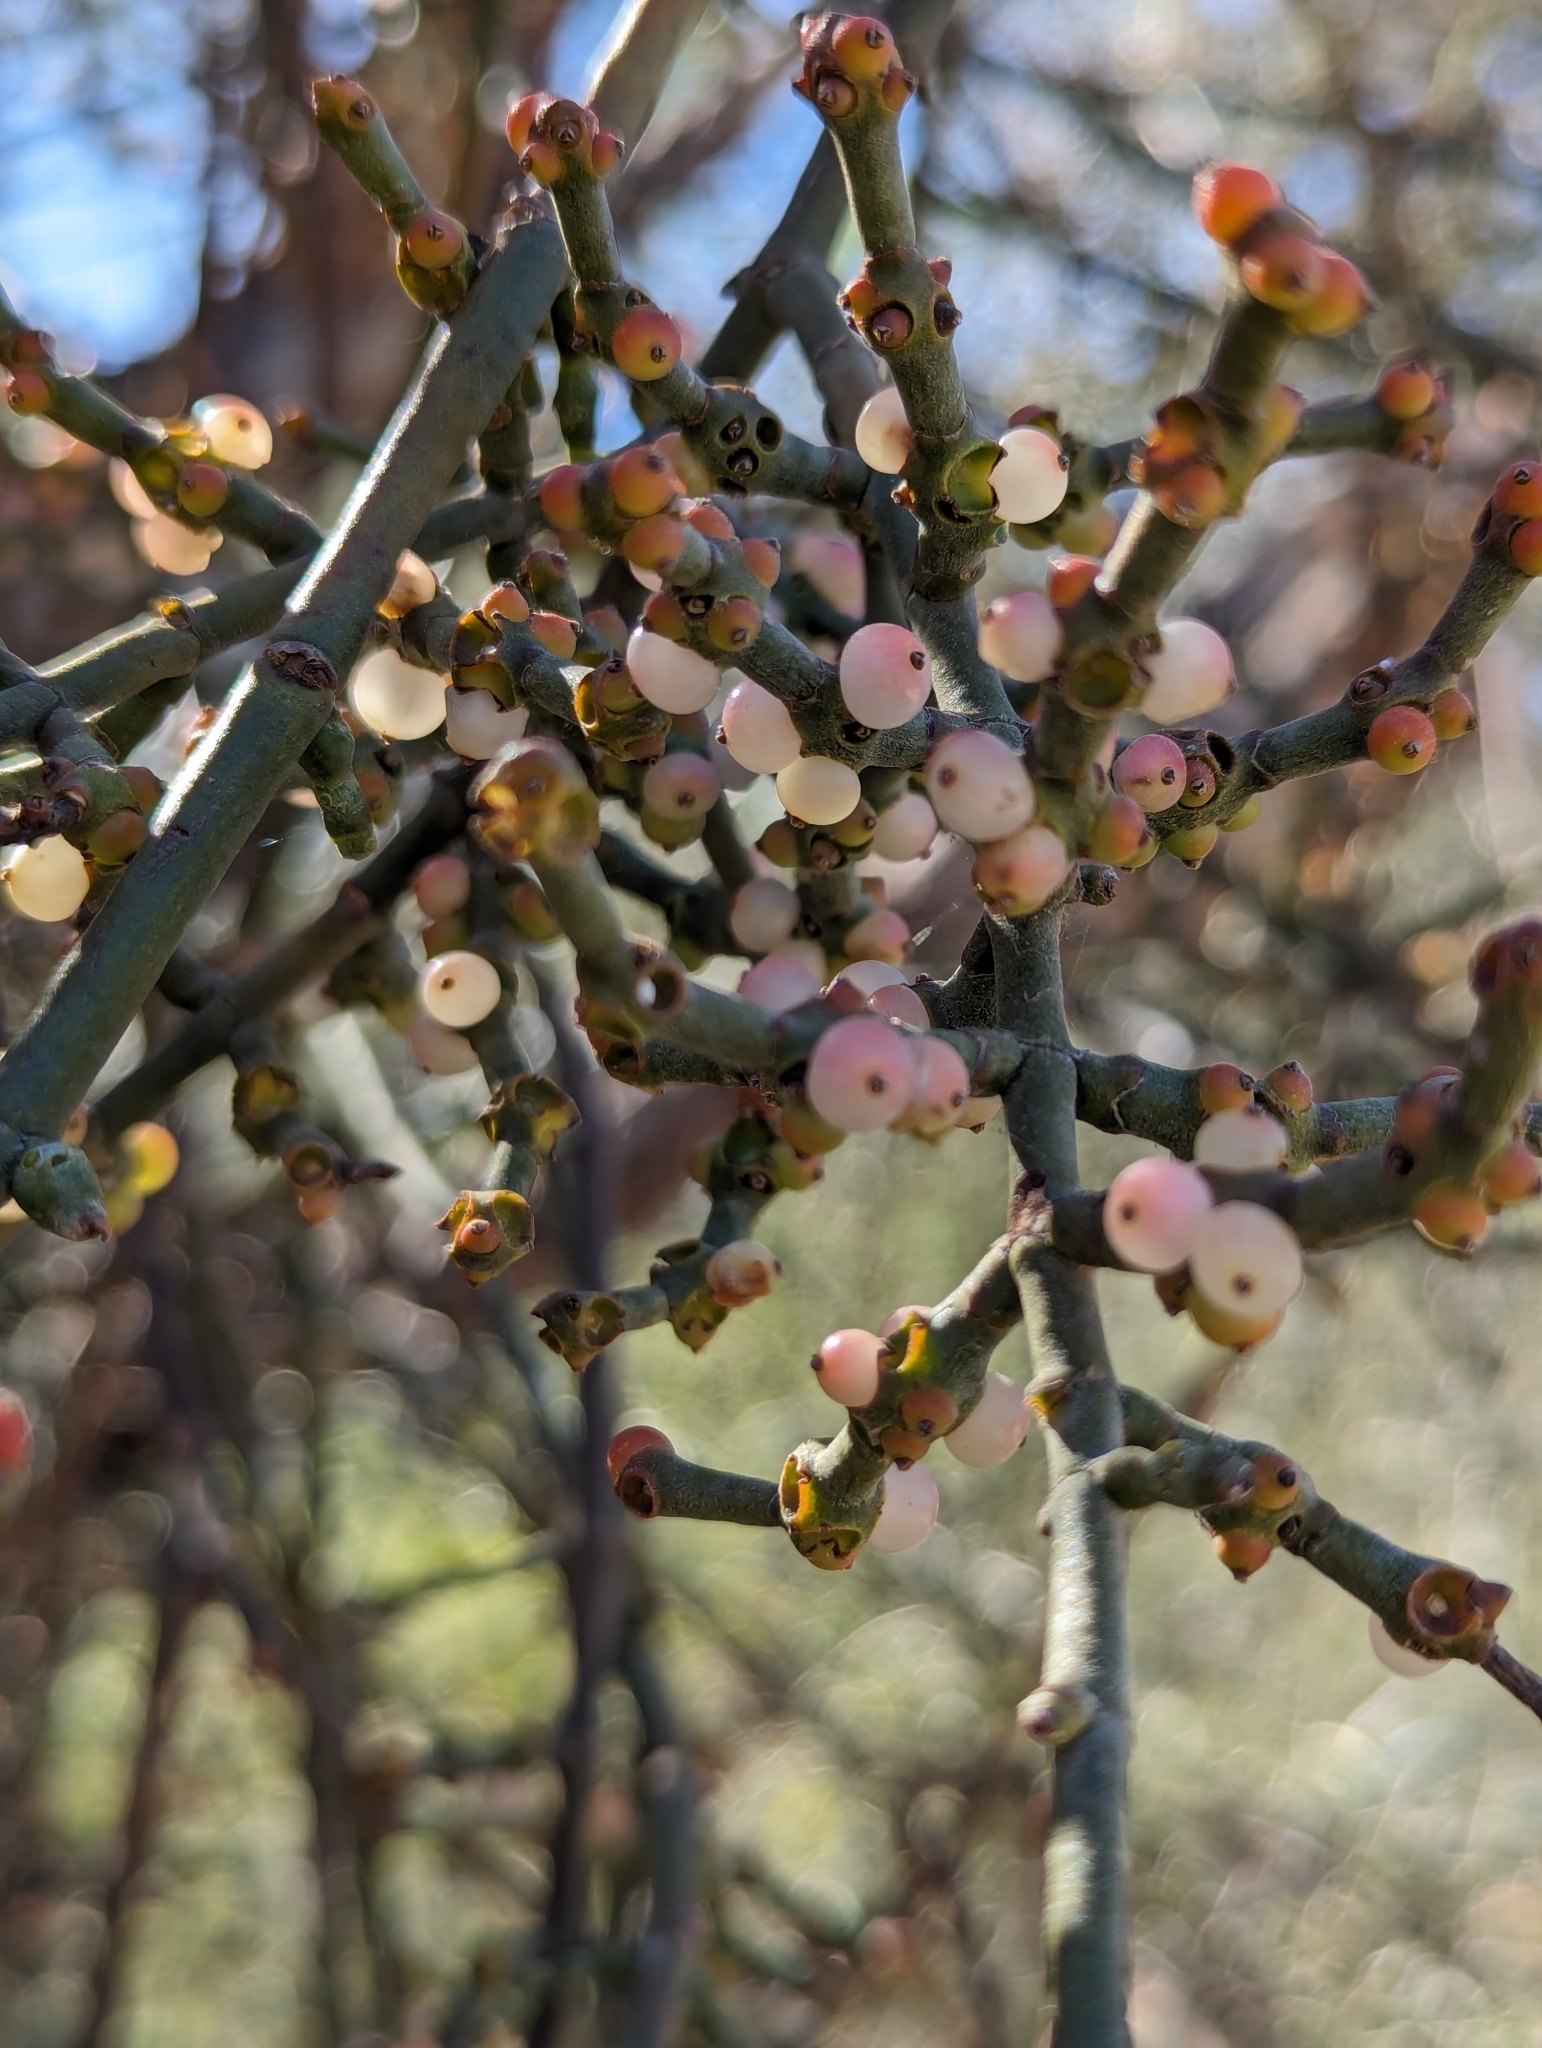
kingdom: Plantae
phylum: Tracheophyta
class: Magnoliopsida
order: Santalales
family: Viscaceae
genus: Phoradendron
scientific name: Phoradendron californicum
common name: Acacia mistletoe
